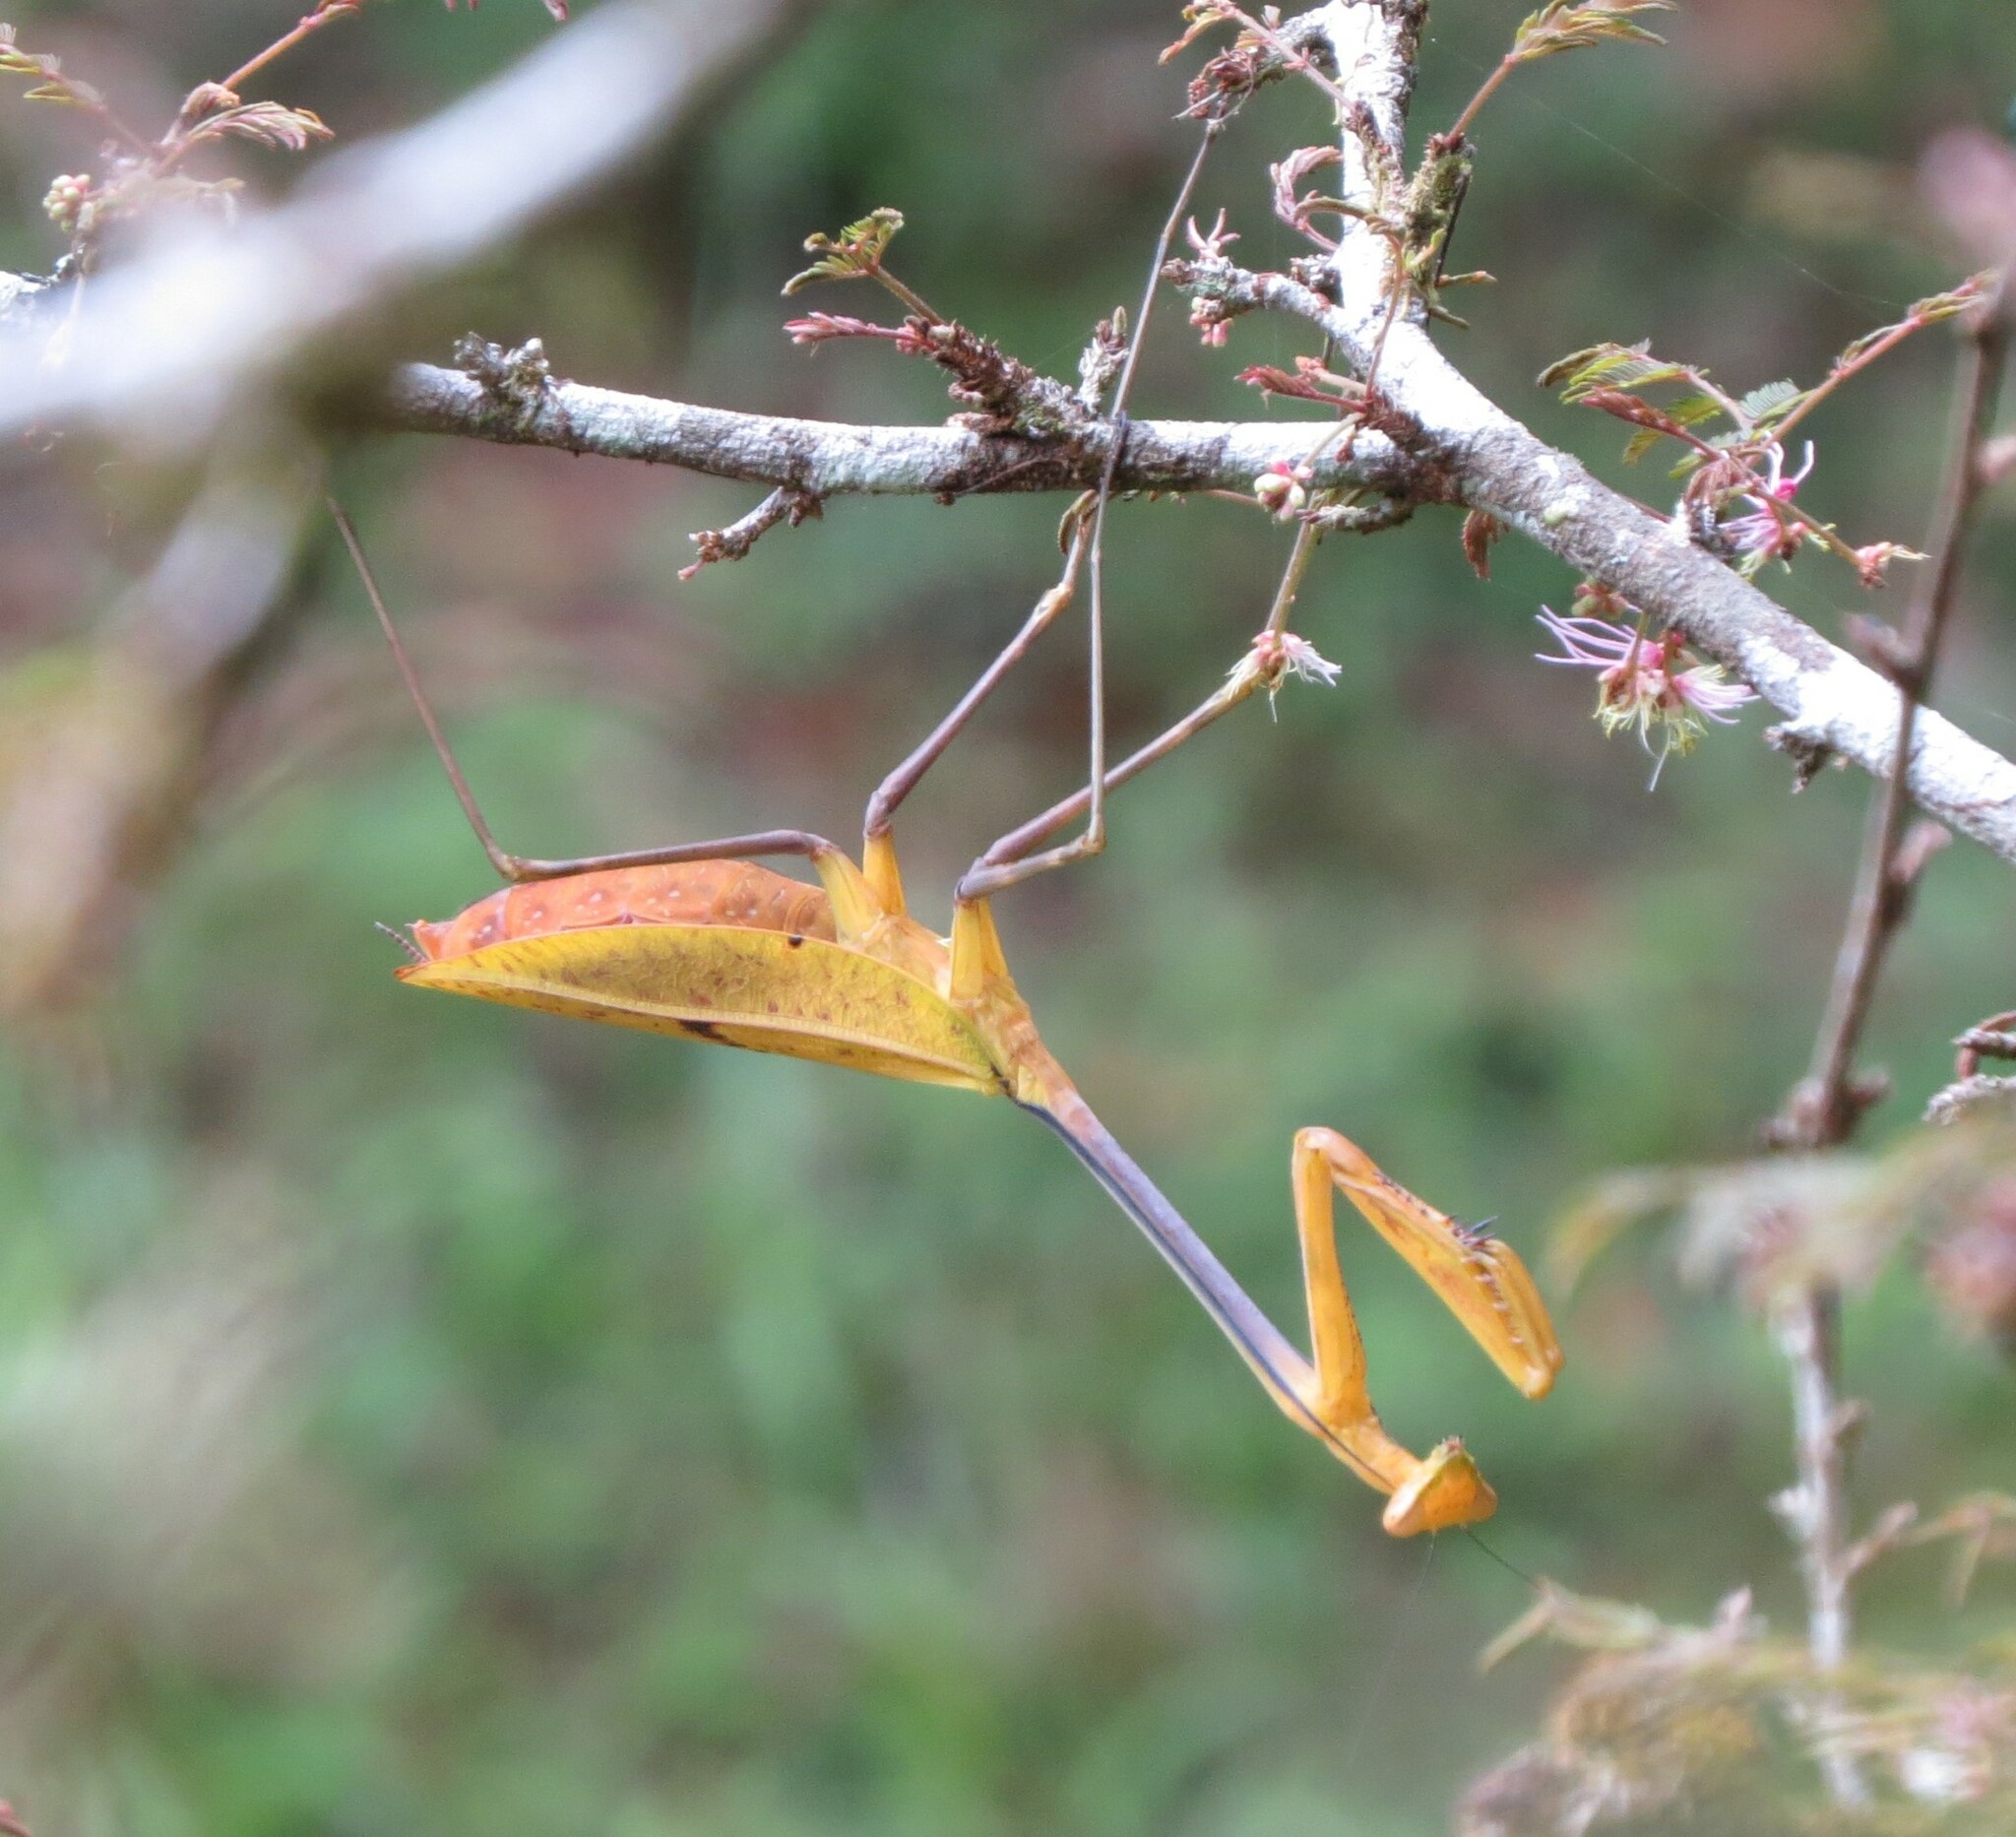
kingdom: Animalia
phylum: Arthropoda
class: Insecta
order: Mantodea
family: Mantidae
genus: Tisma
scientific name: Tisma freyi
